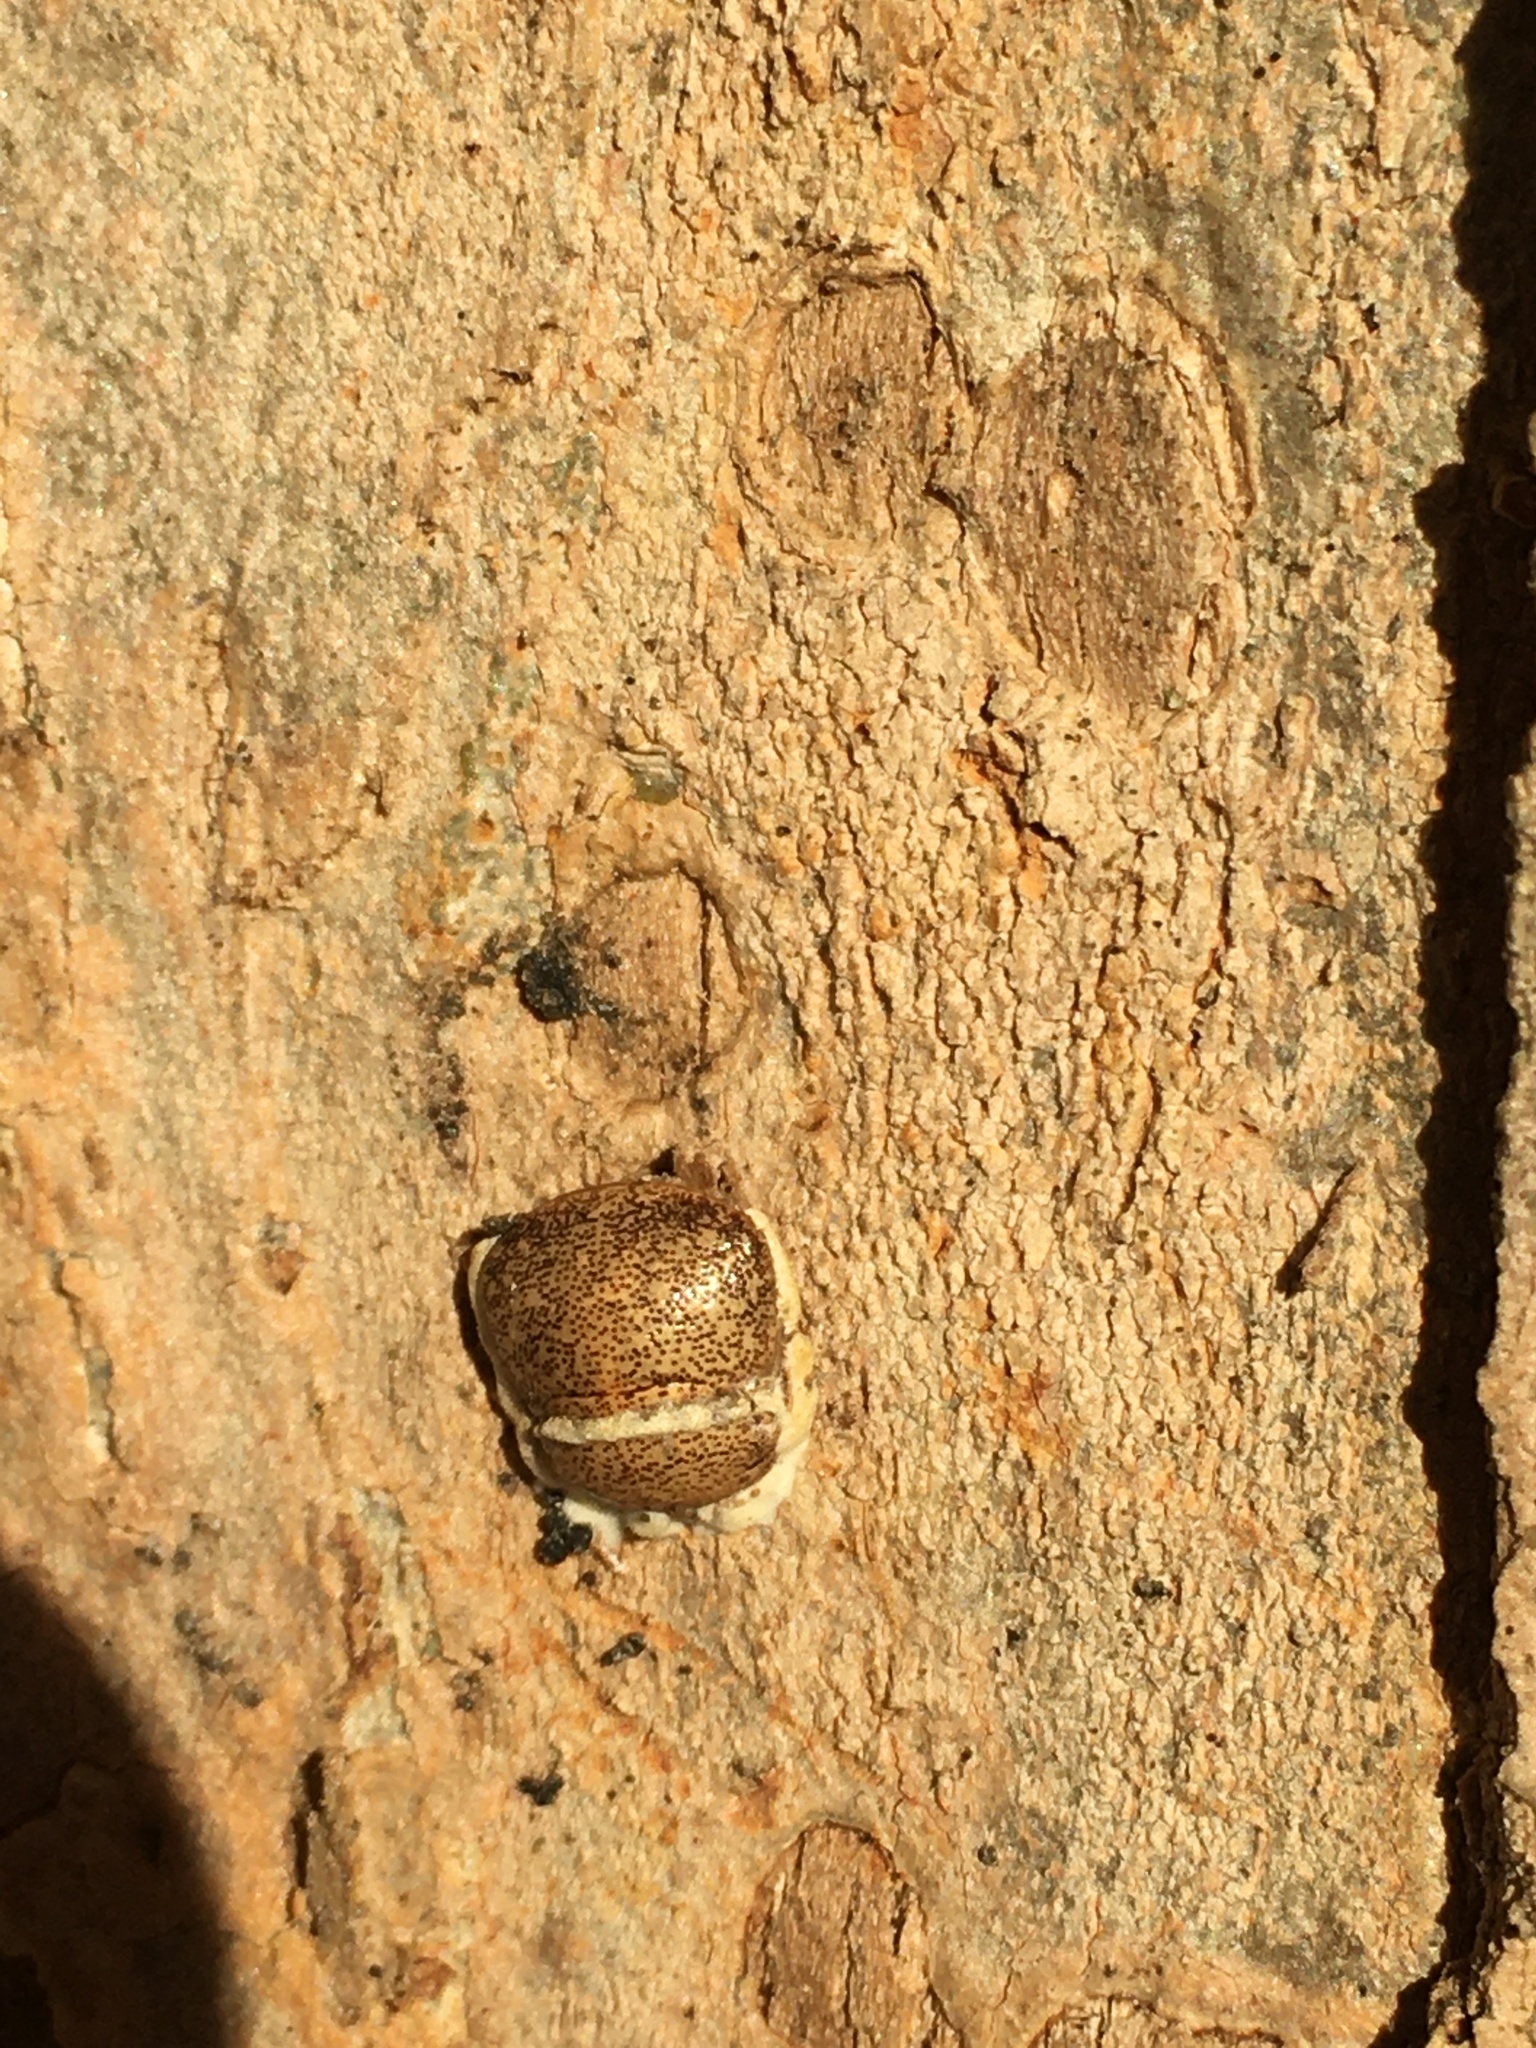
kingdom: Fungi
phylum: Ascomycota
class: Sordariomycetes
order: Hypocreales
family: Cordycipitaceae
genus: Beauveria
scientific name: Beauveria bassiana
